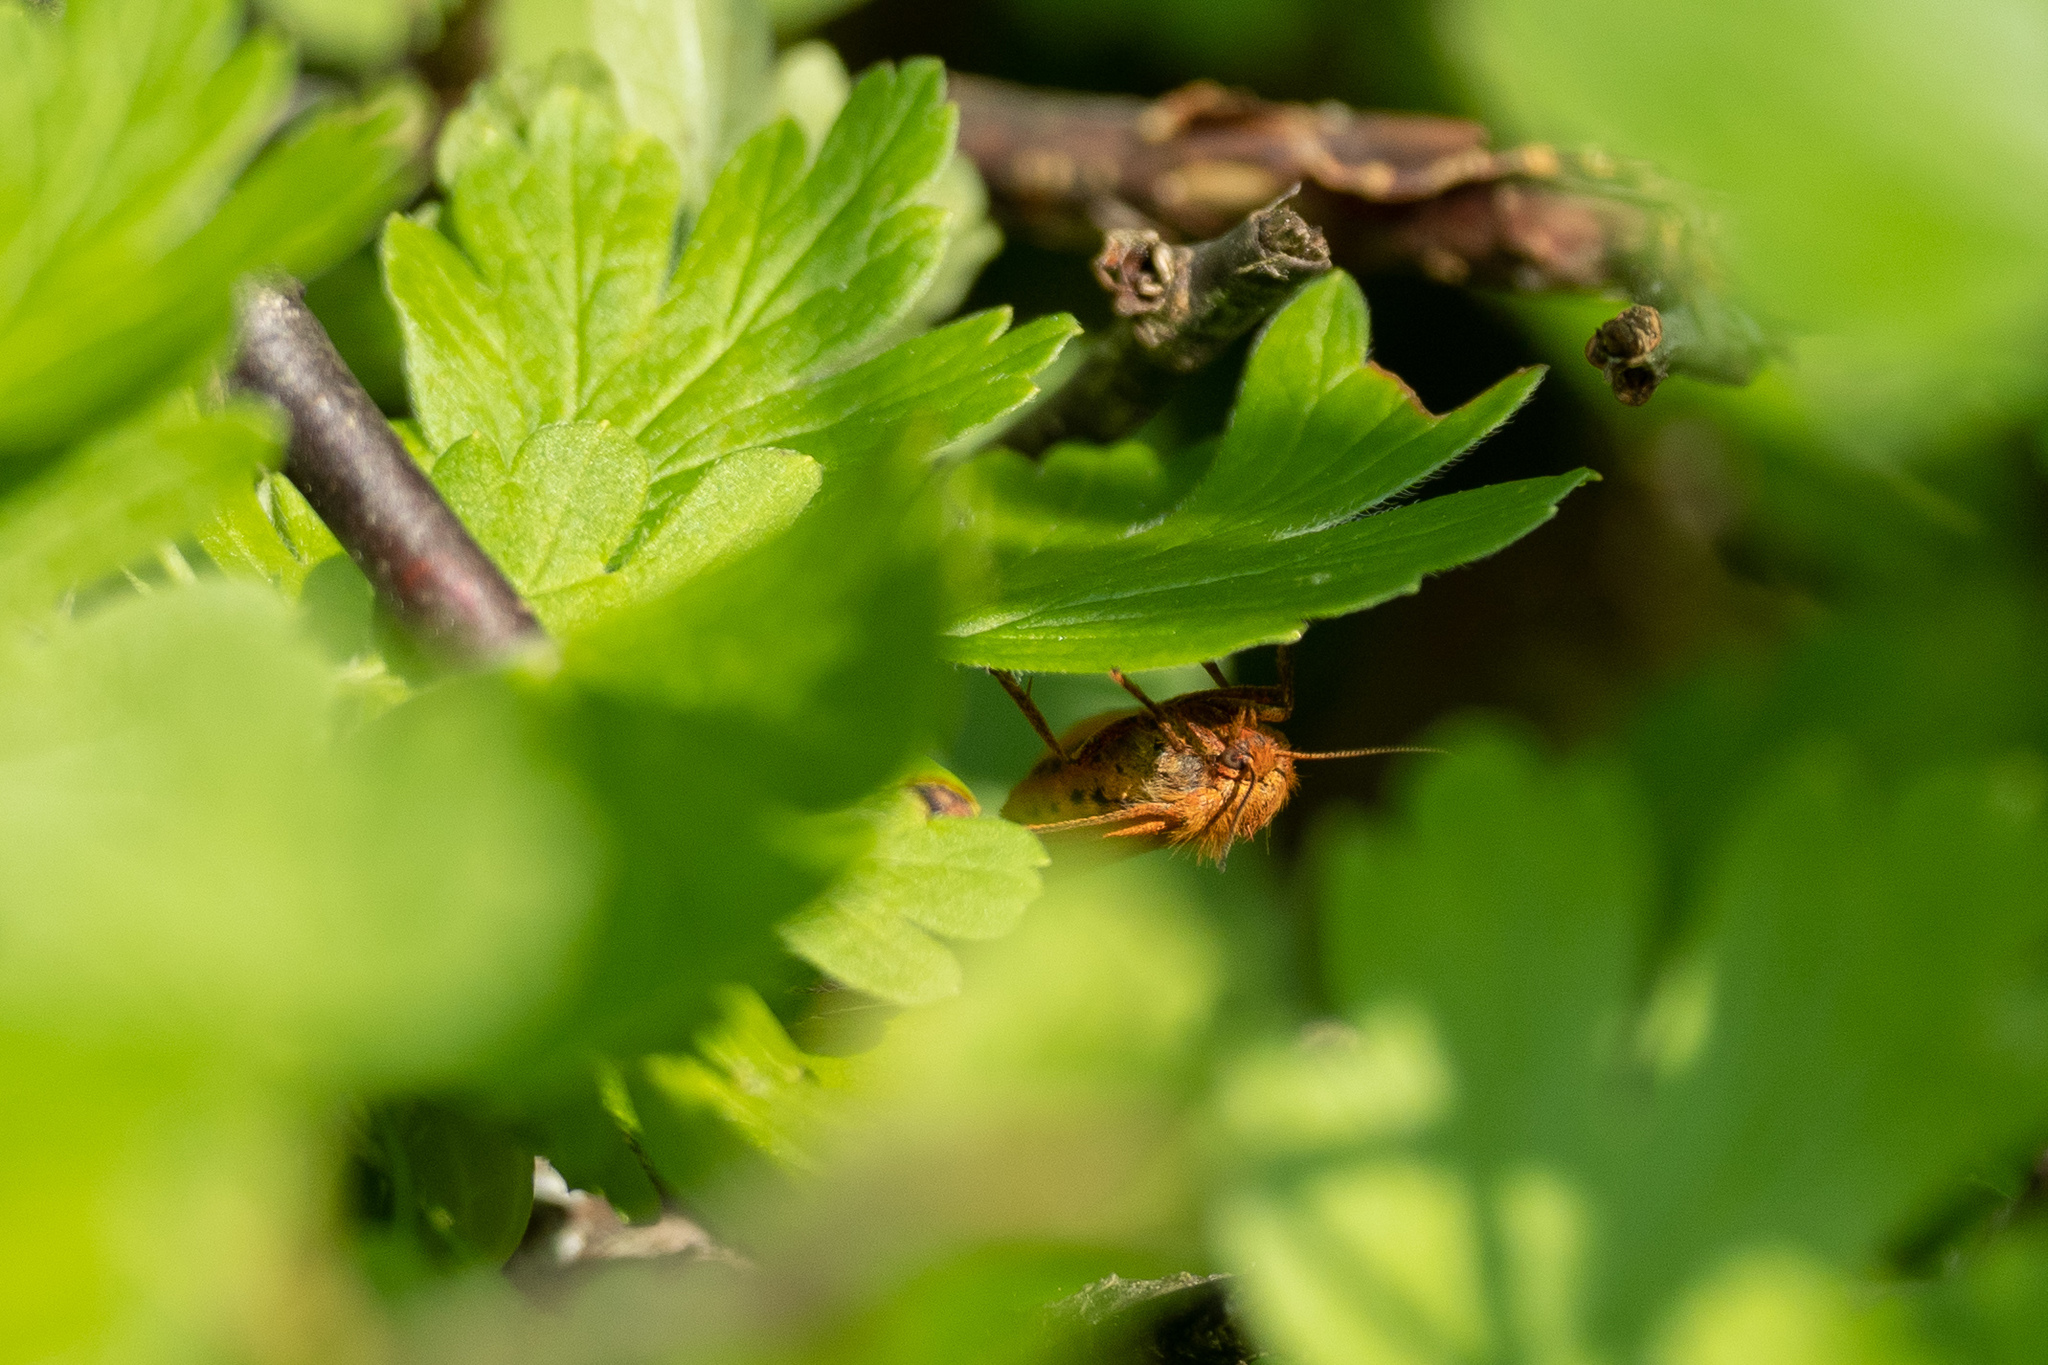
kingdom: Animalia
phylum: Arthropoda
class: Insecta
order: Lepidoptera
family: Erebidae
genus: Diacrisia
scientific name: Diacrisia sannio
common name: Clouded buff
